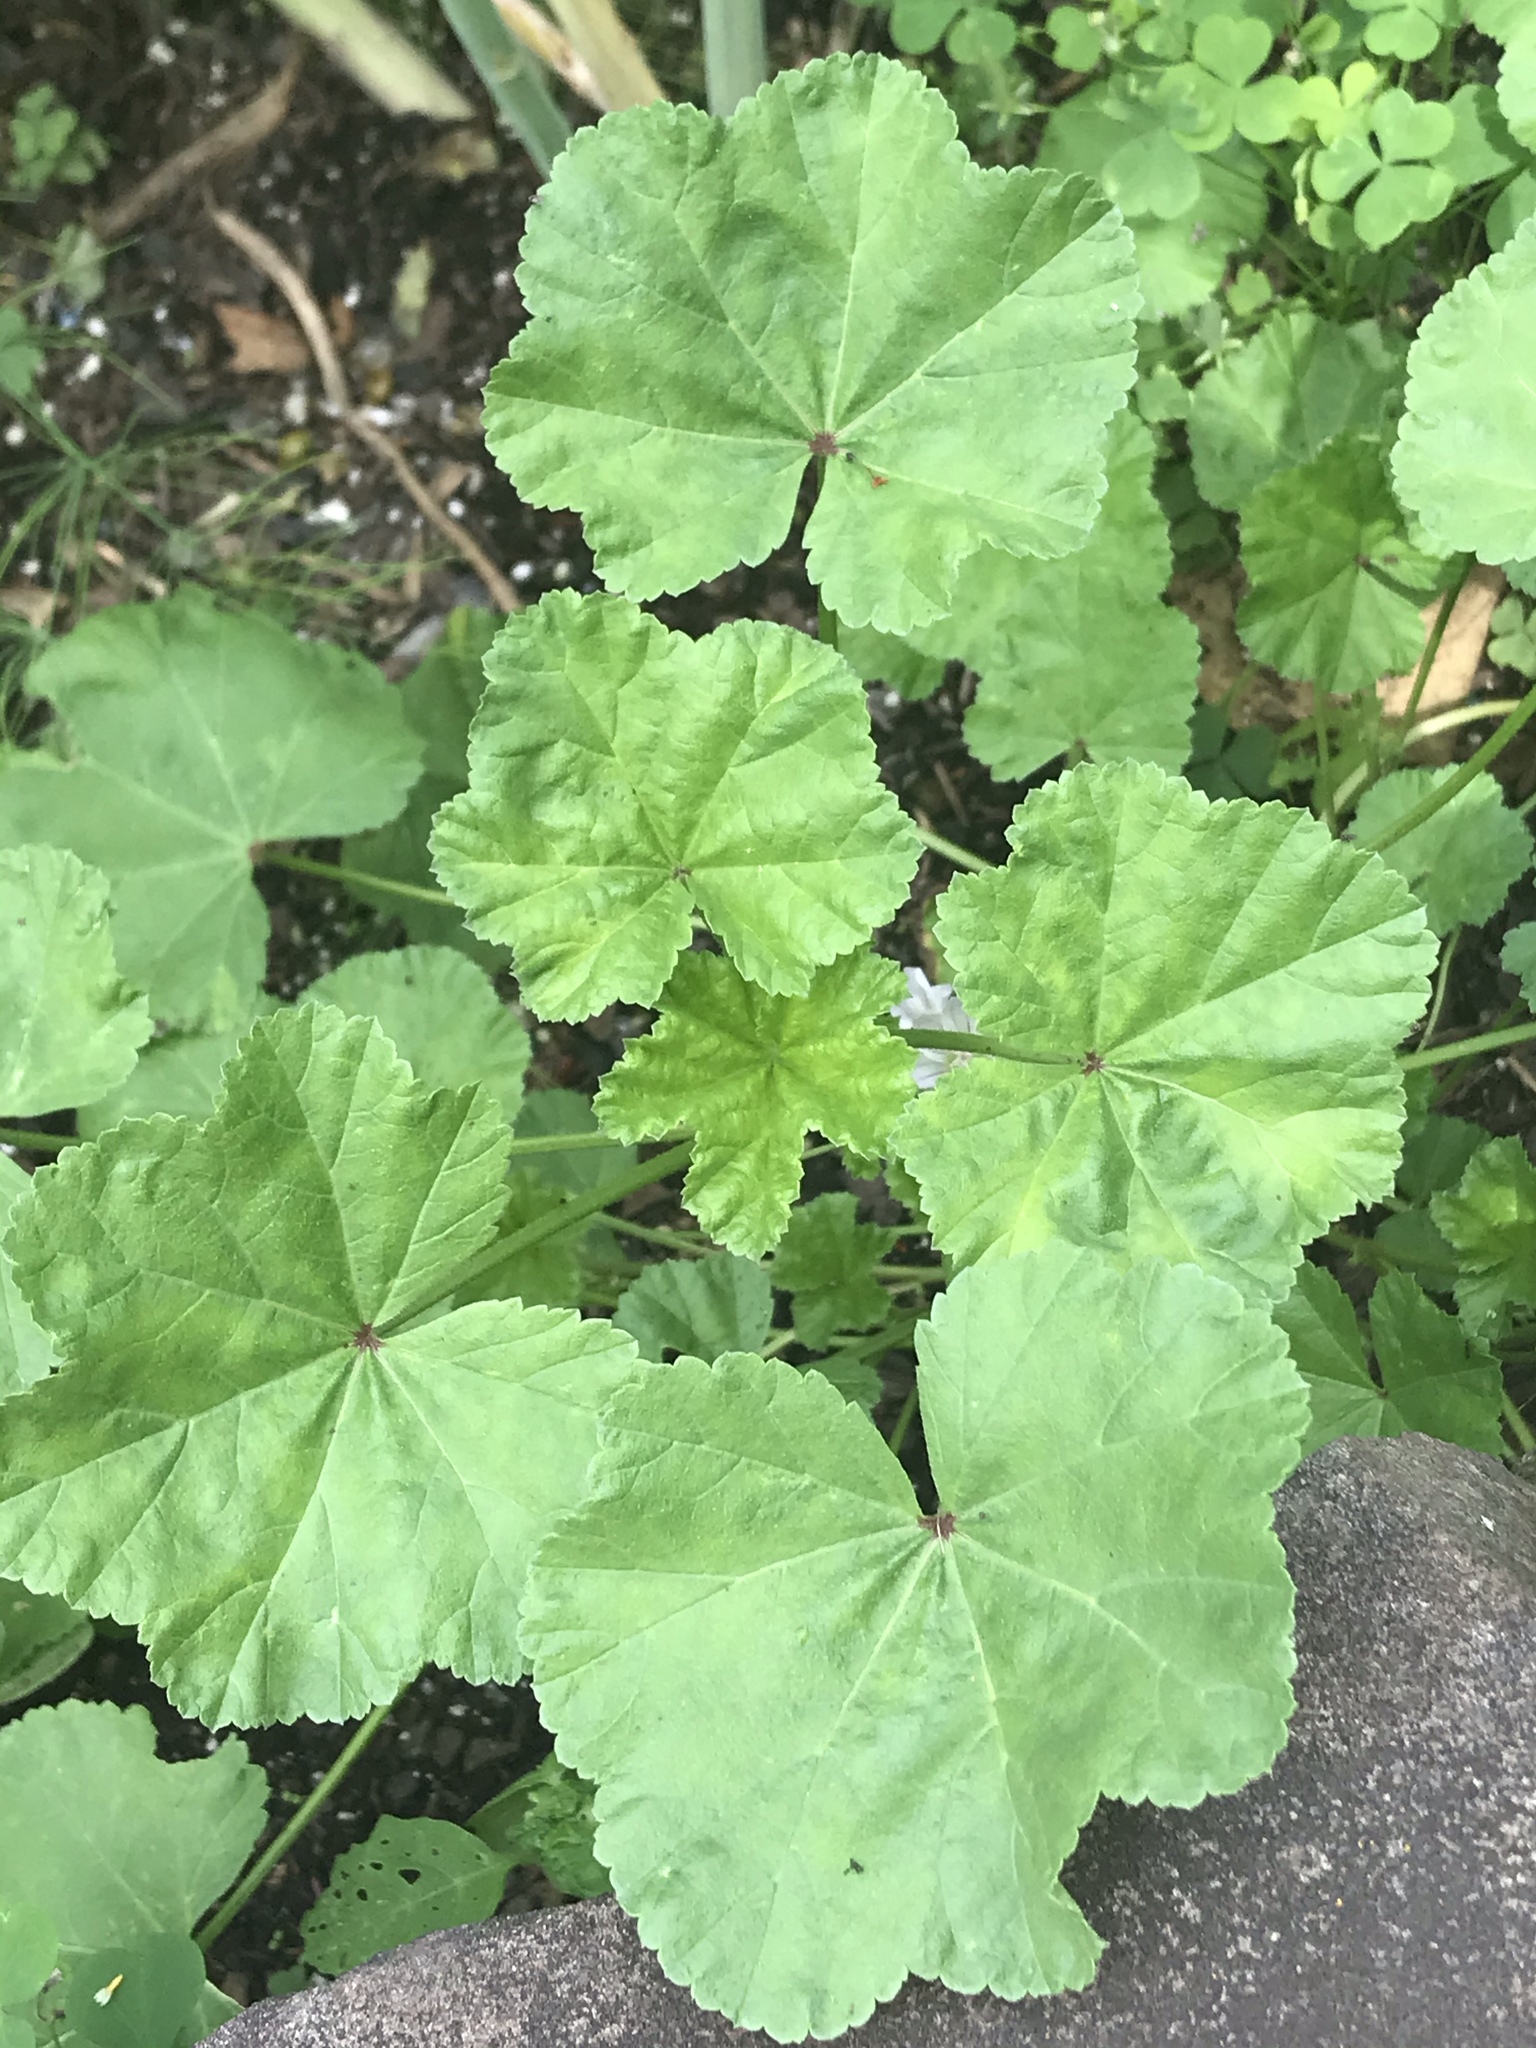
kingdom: Plantae
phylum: Tracheophyta
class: Magnoliopsida
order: Malvales
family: Malvaceae
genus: Malva
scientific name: Malva neglecta
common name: Common mallow
